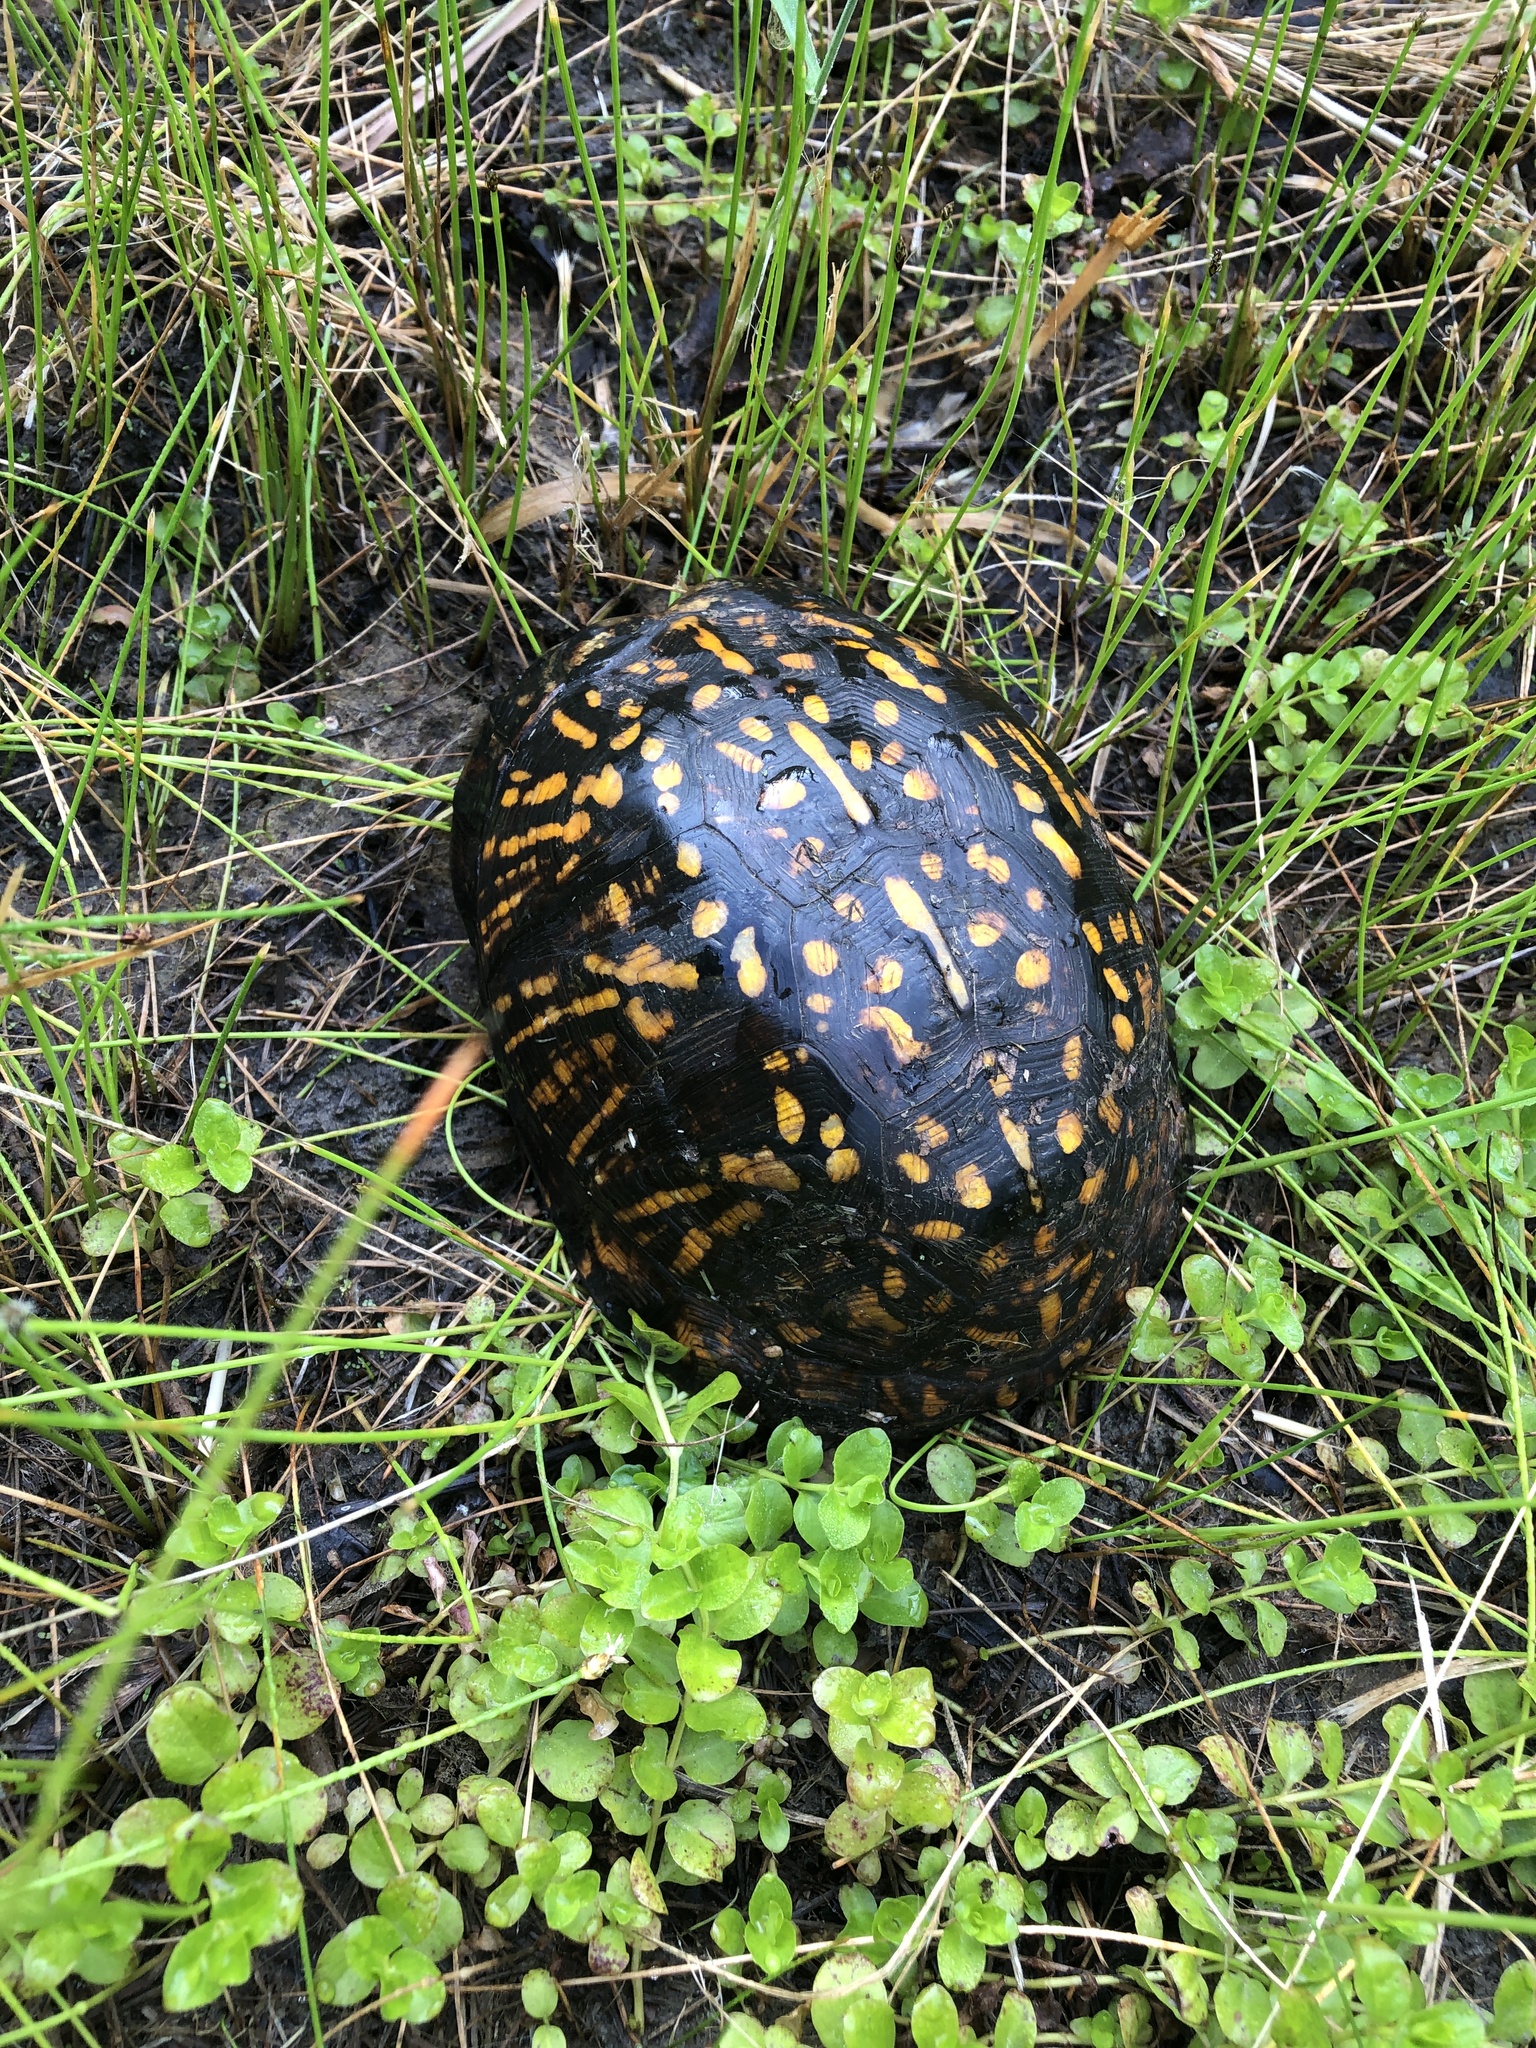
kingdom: Animalia
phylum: Chordata
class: Testudines
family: Emydidae
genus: Terrapene
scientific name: Terrapene carolina
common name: Common box turtle
